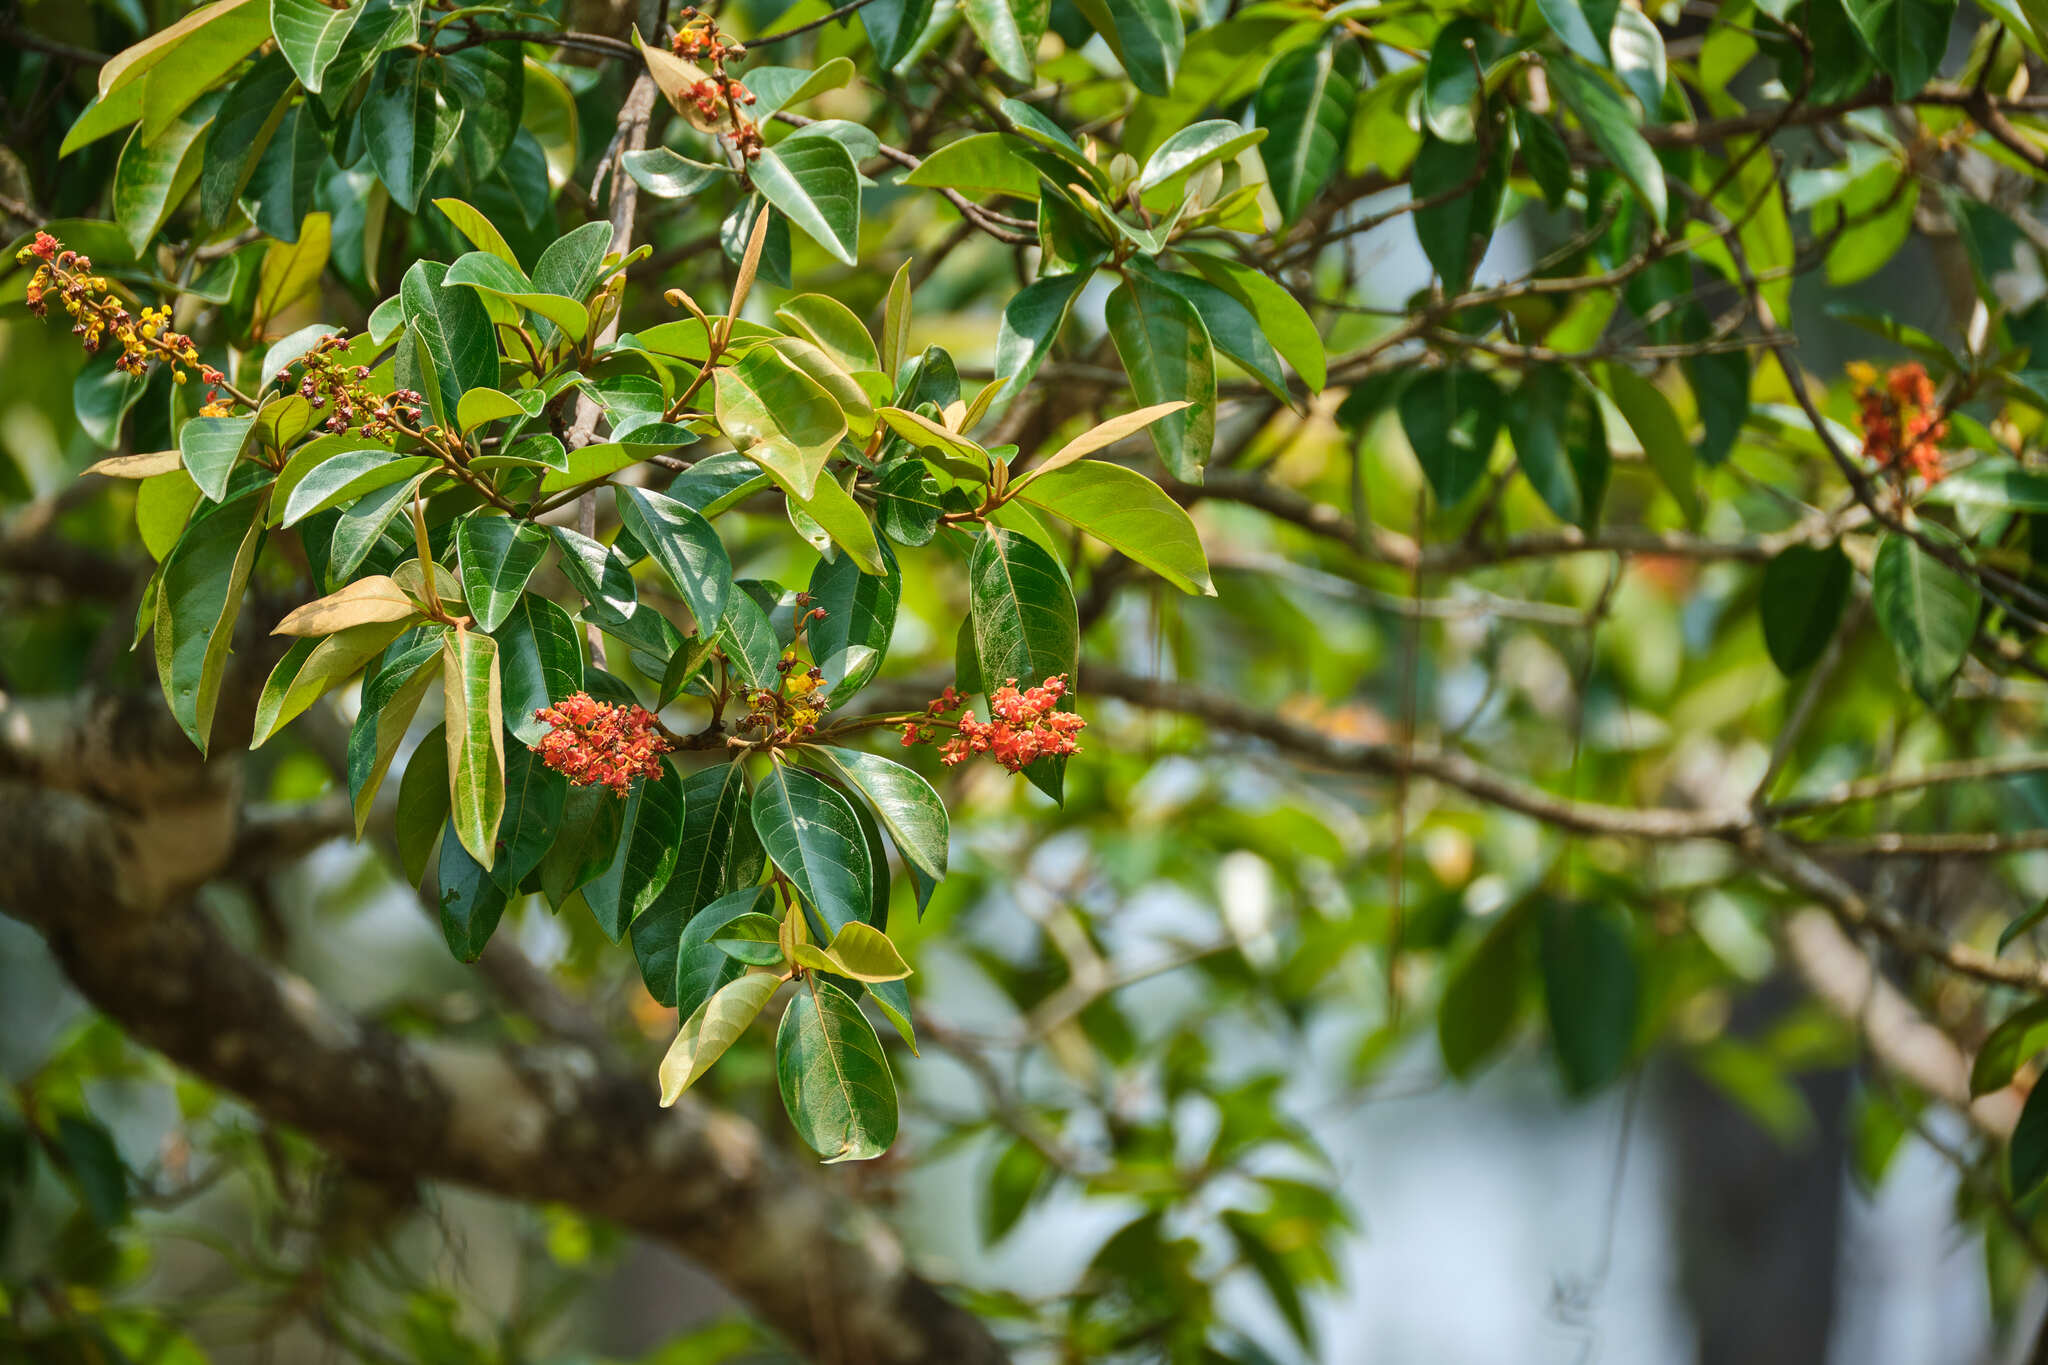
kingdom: Plantae
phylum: Tracheophyta
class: Magnoliopsida
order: Malpighiales
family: Malpighiaceae
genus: Byrsonima
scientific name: Byrsonima crassifolia
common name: Golden spoon
